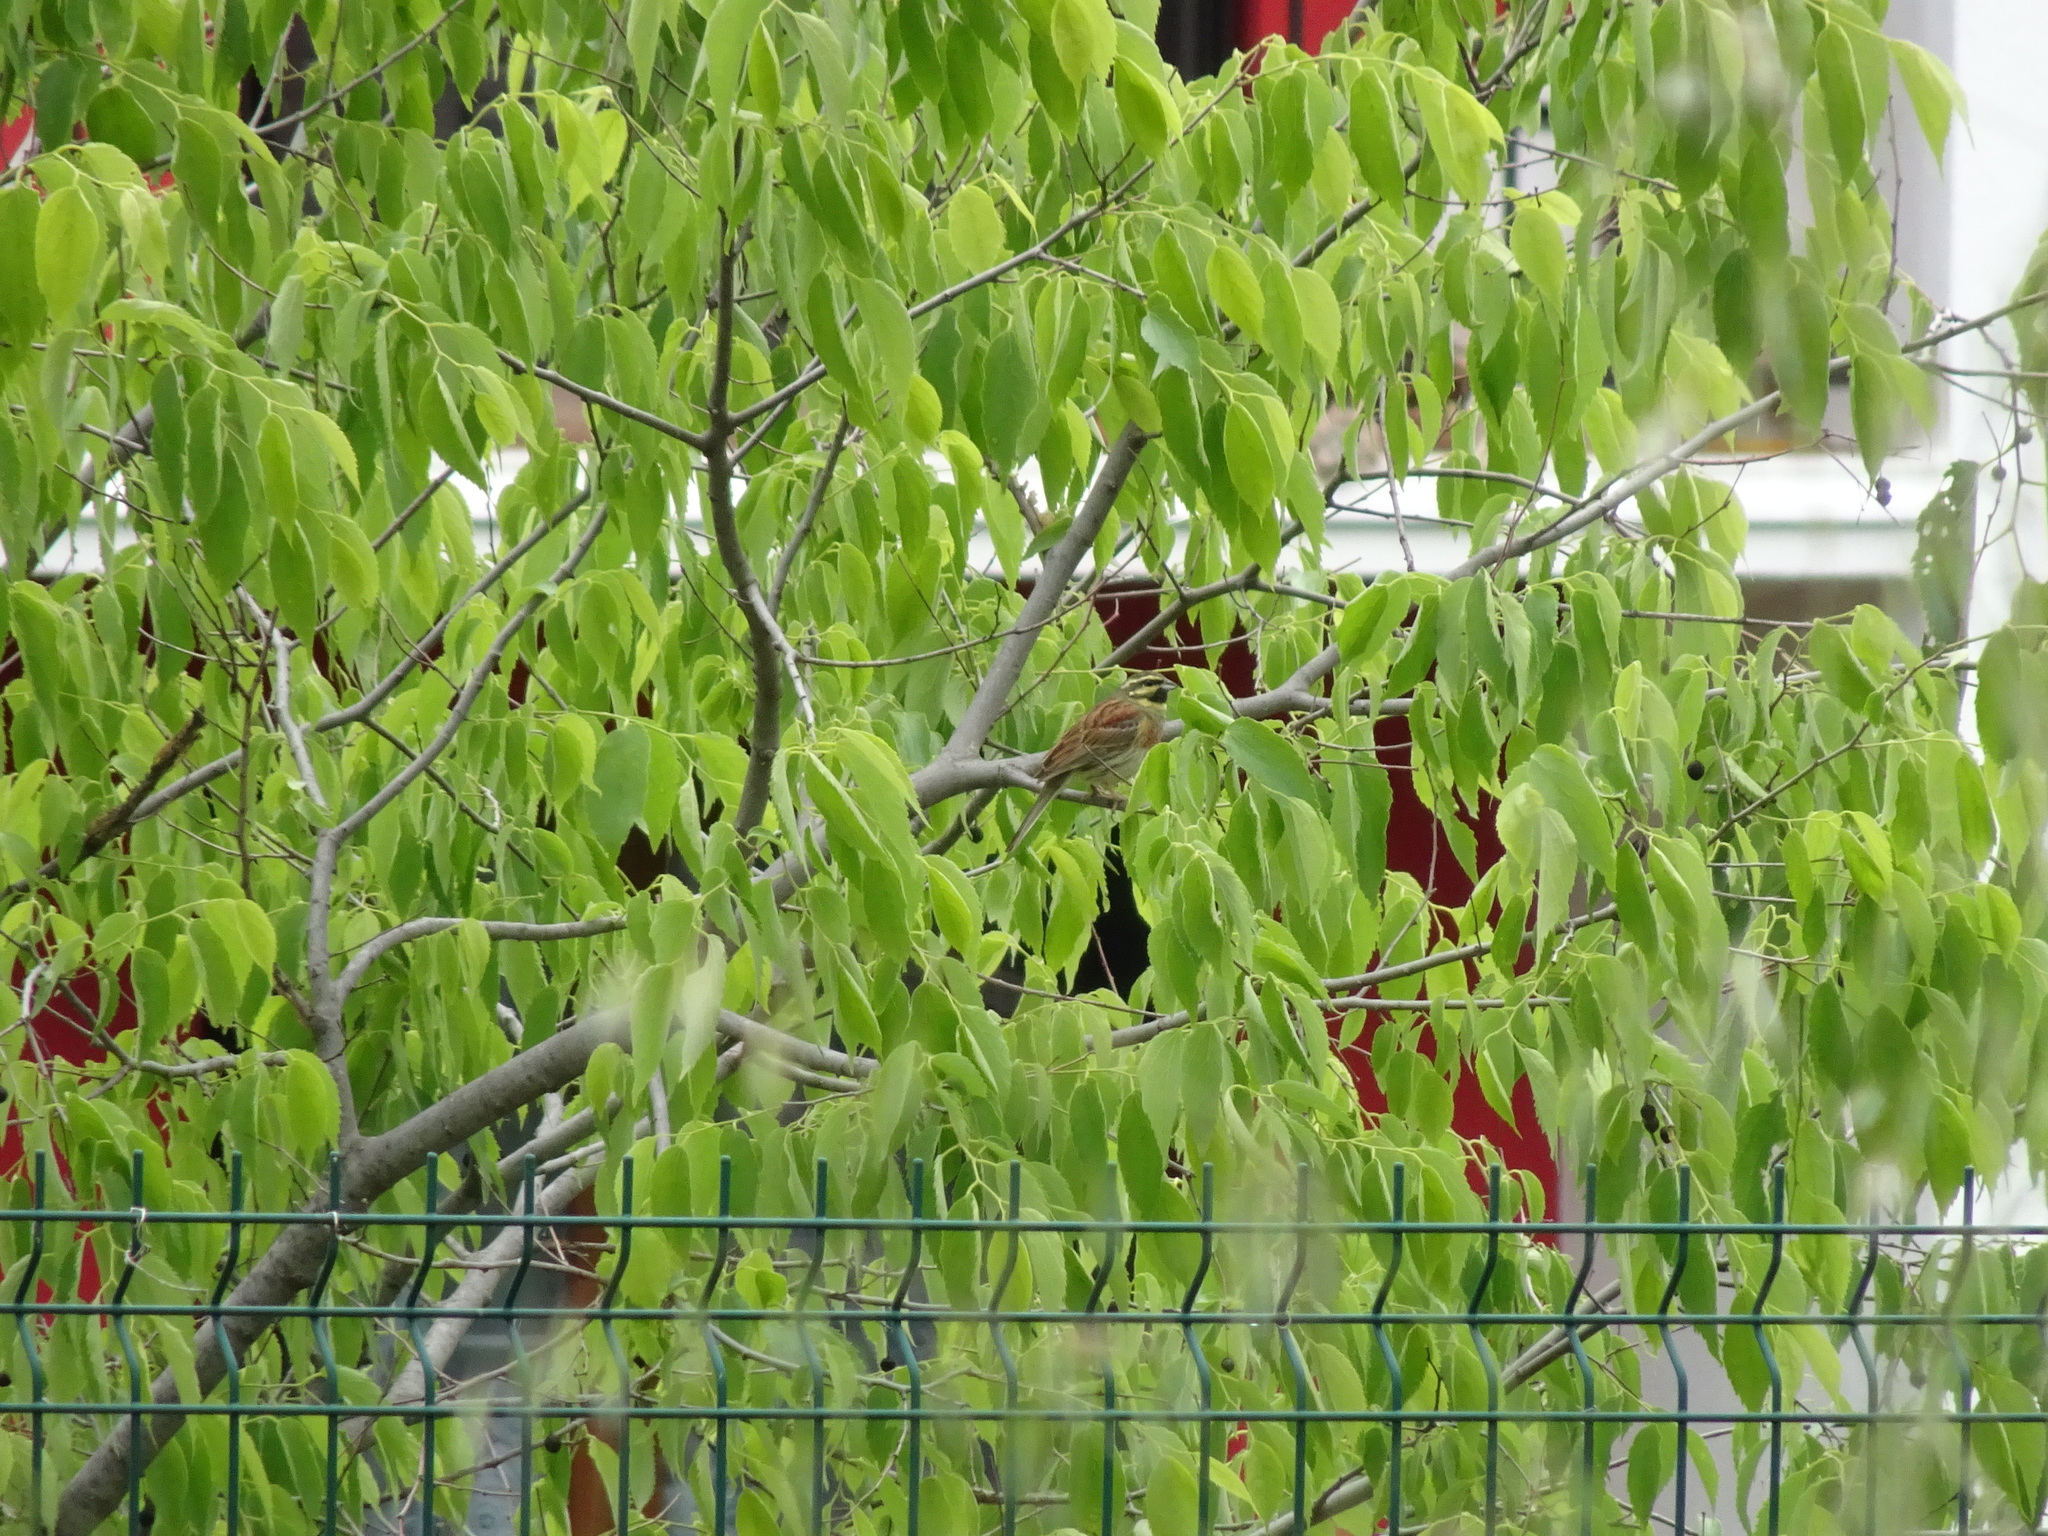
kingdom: Animalia
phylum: Chordata
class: Aves
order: Passeriformes
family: Emberizidae
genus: Emberiza
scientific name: Emberiza cirlus
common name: Cirl bunting
